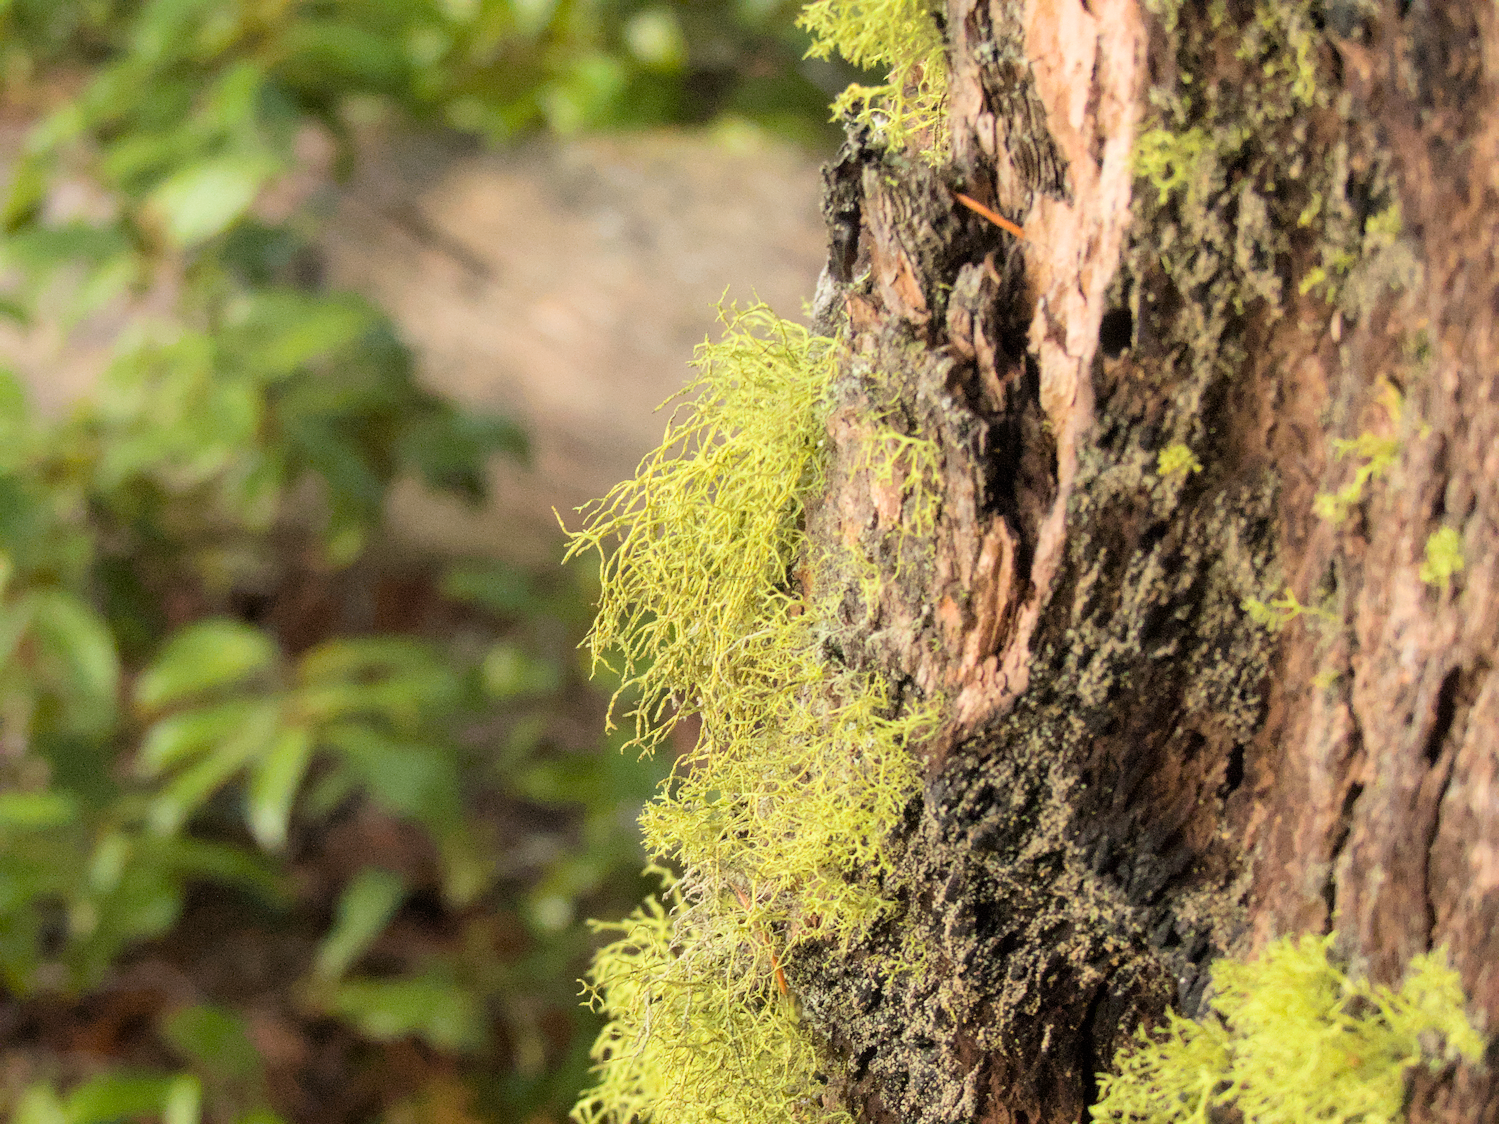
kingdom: Fungi
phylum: Ascomycota
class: Lecanoromycetes
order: Lecanorales
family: Parmeliaceae
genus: Letharia
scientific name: Letharia vulpina
